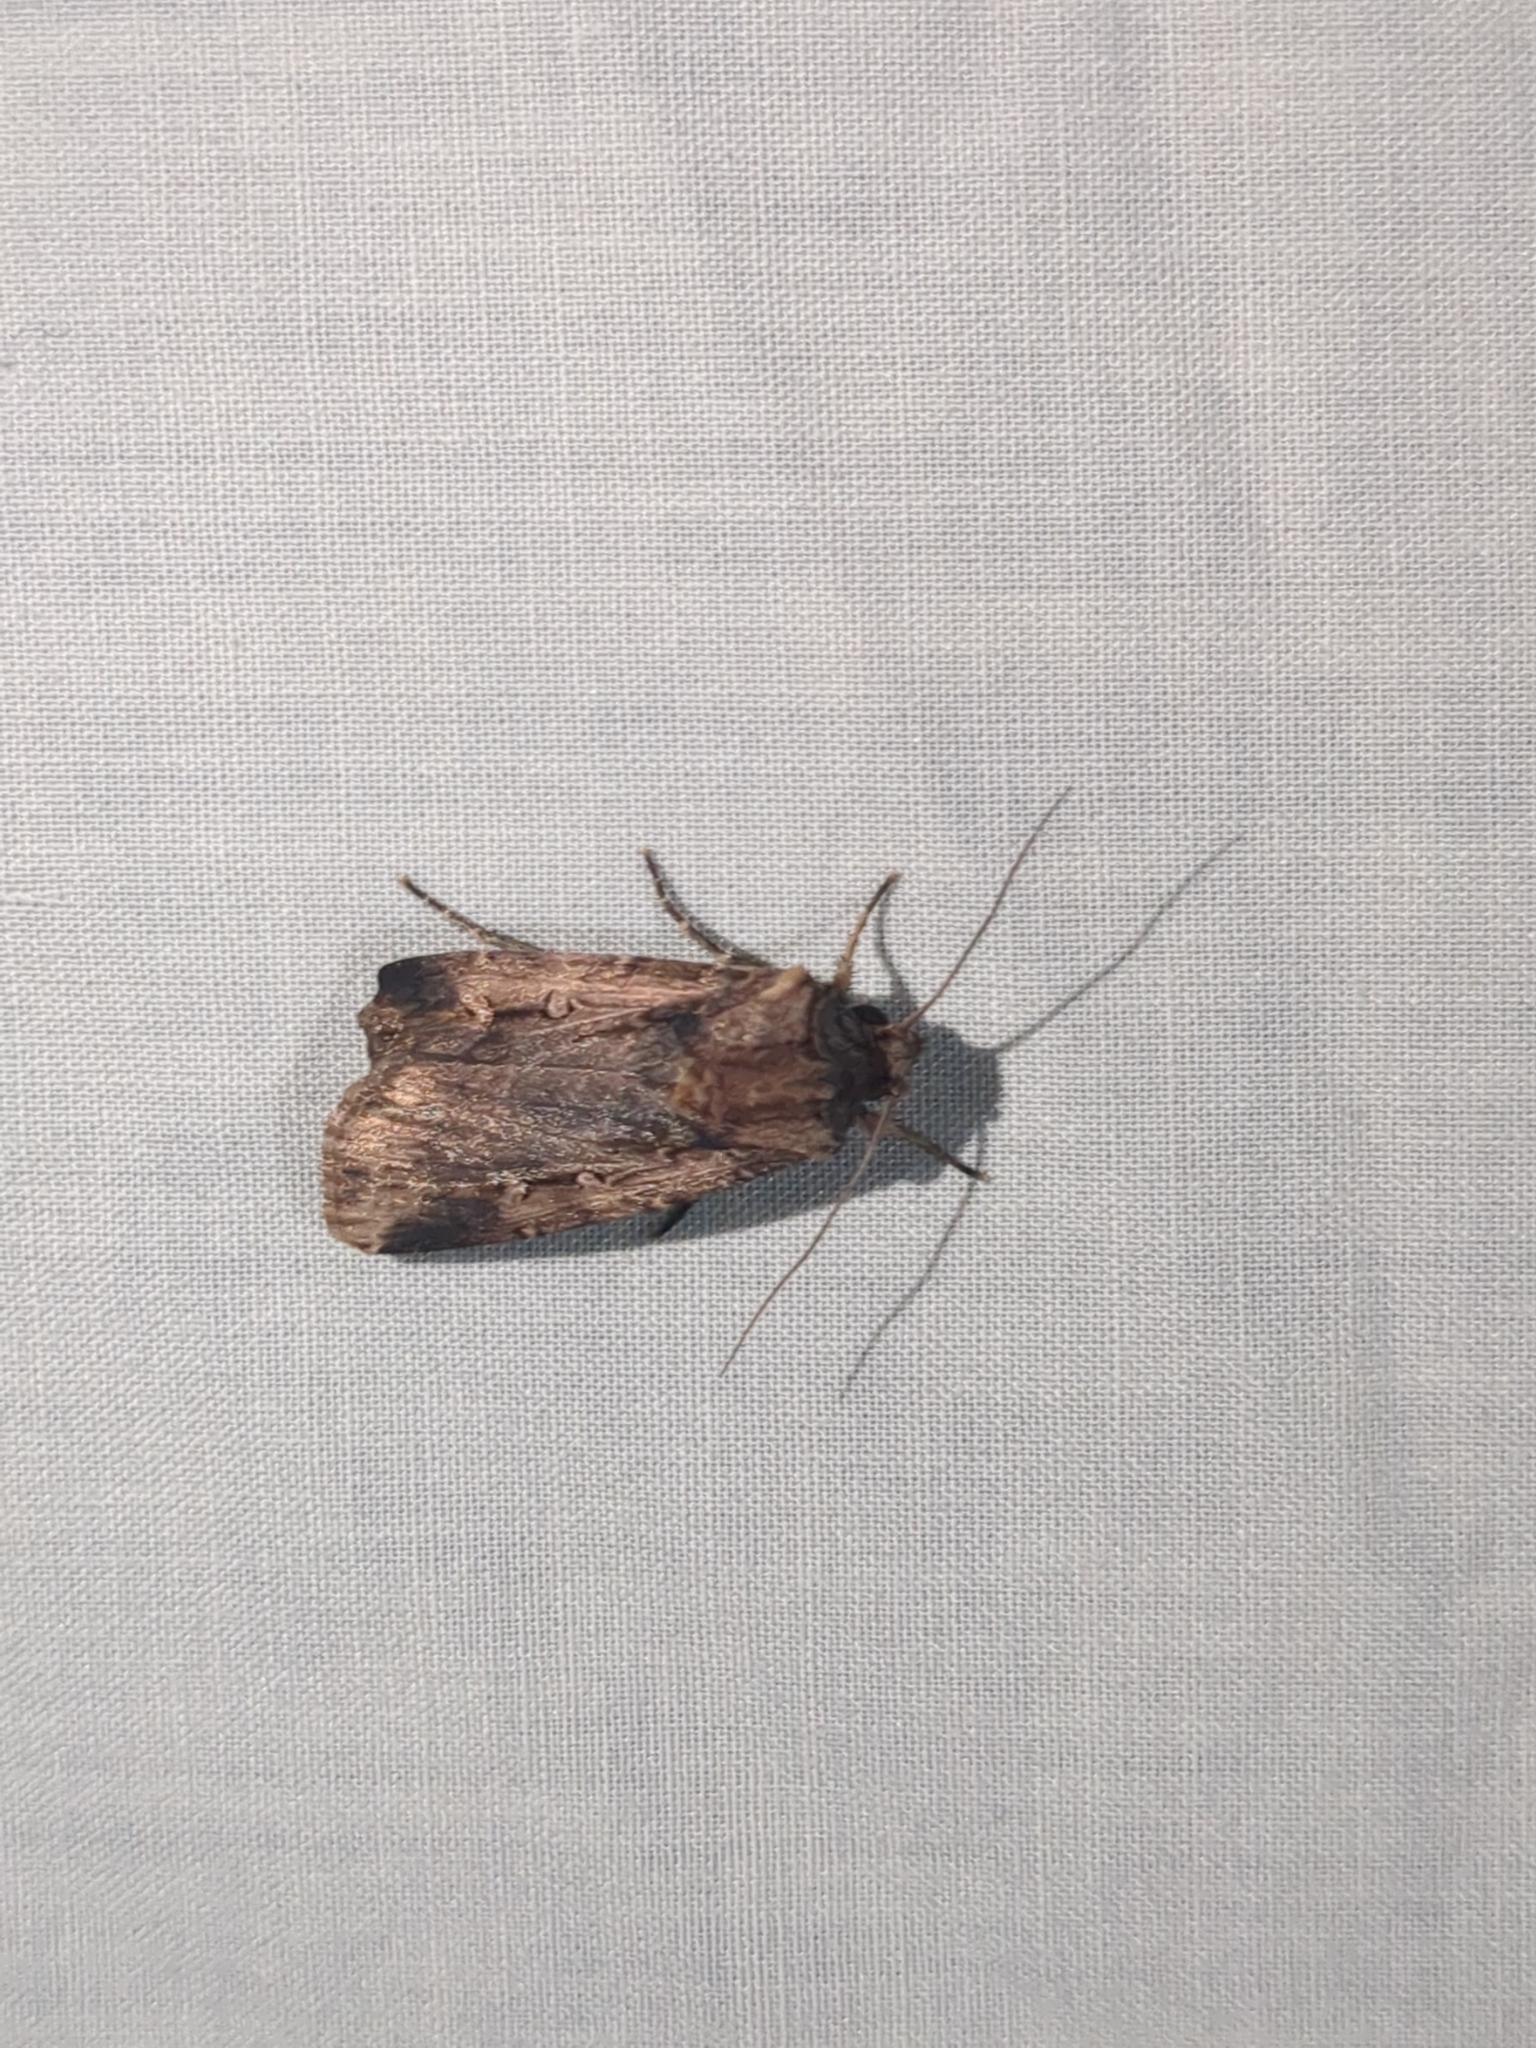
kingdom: Animalia
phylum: Arthropoda
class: Insecta
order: Lepidoptera
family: Noctuidae
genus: Feltia
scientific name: Feltia subterranea
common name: Granulate cutworm
